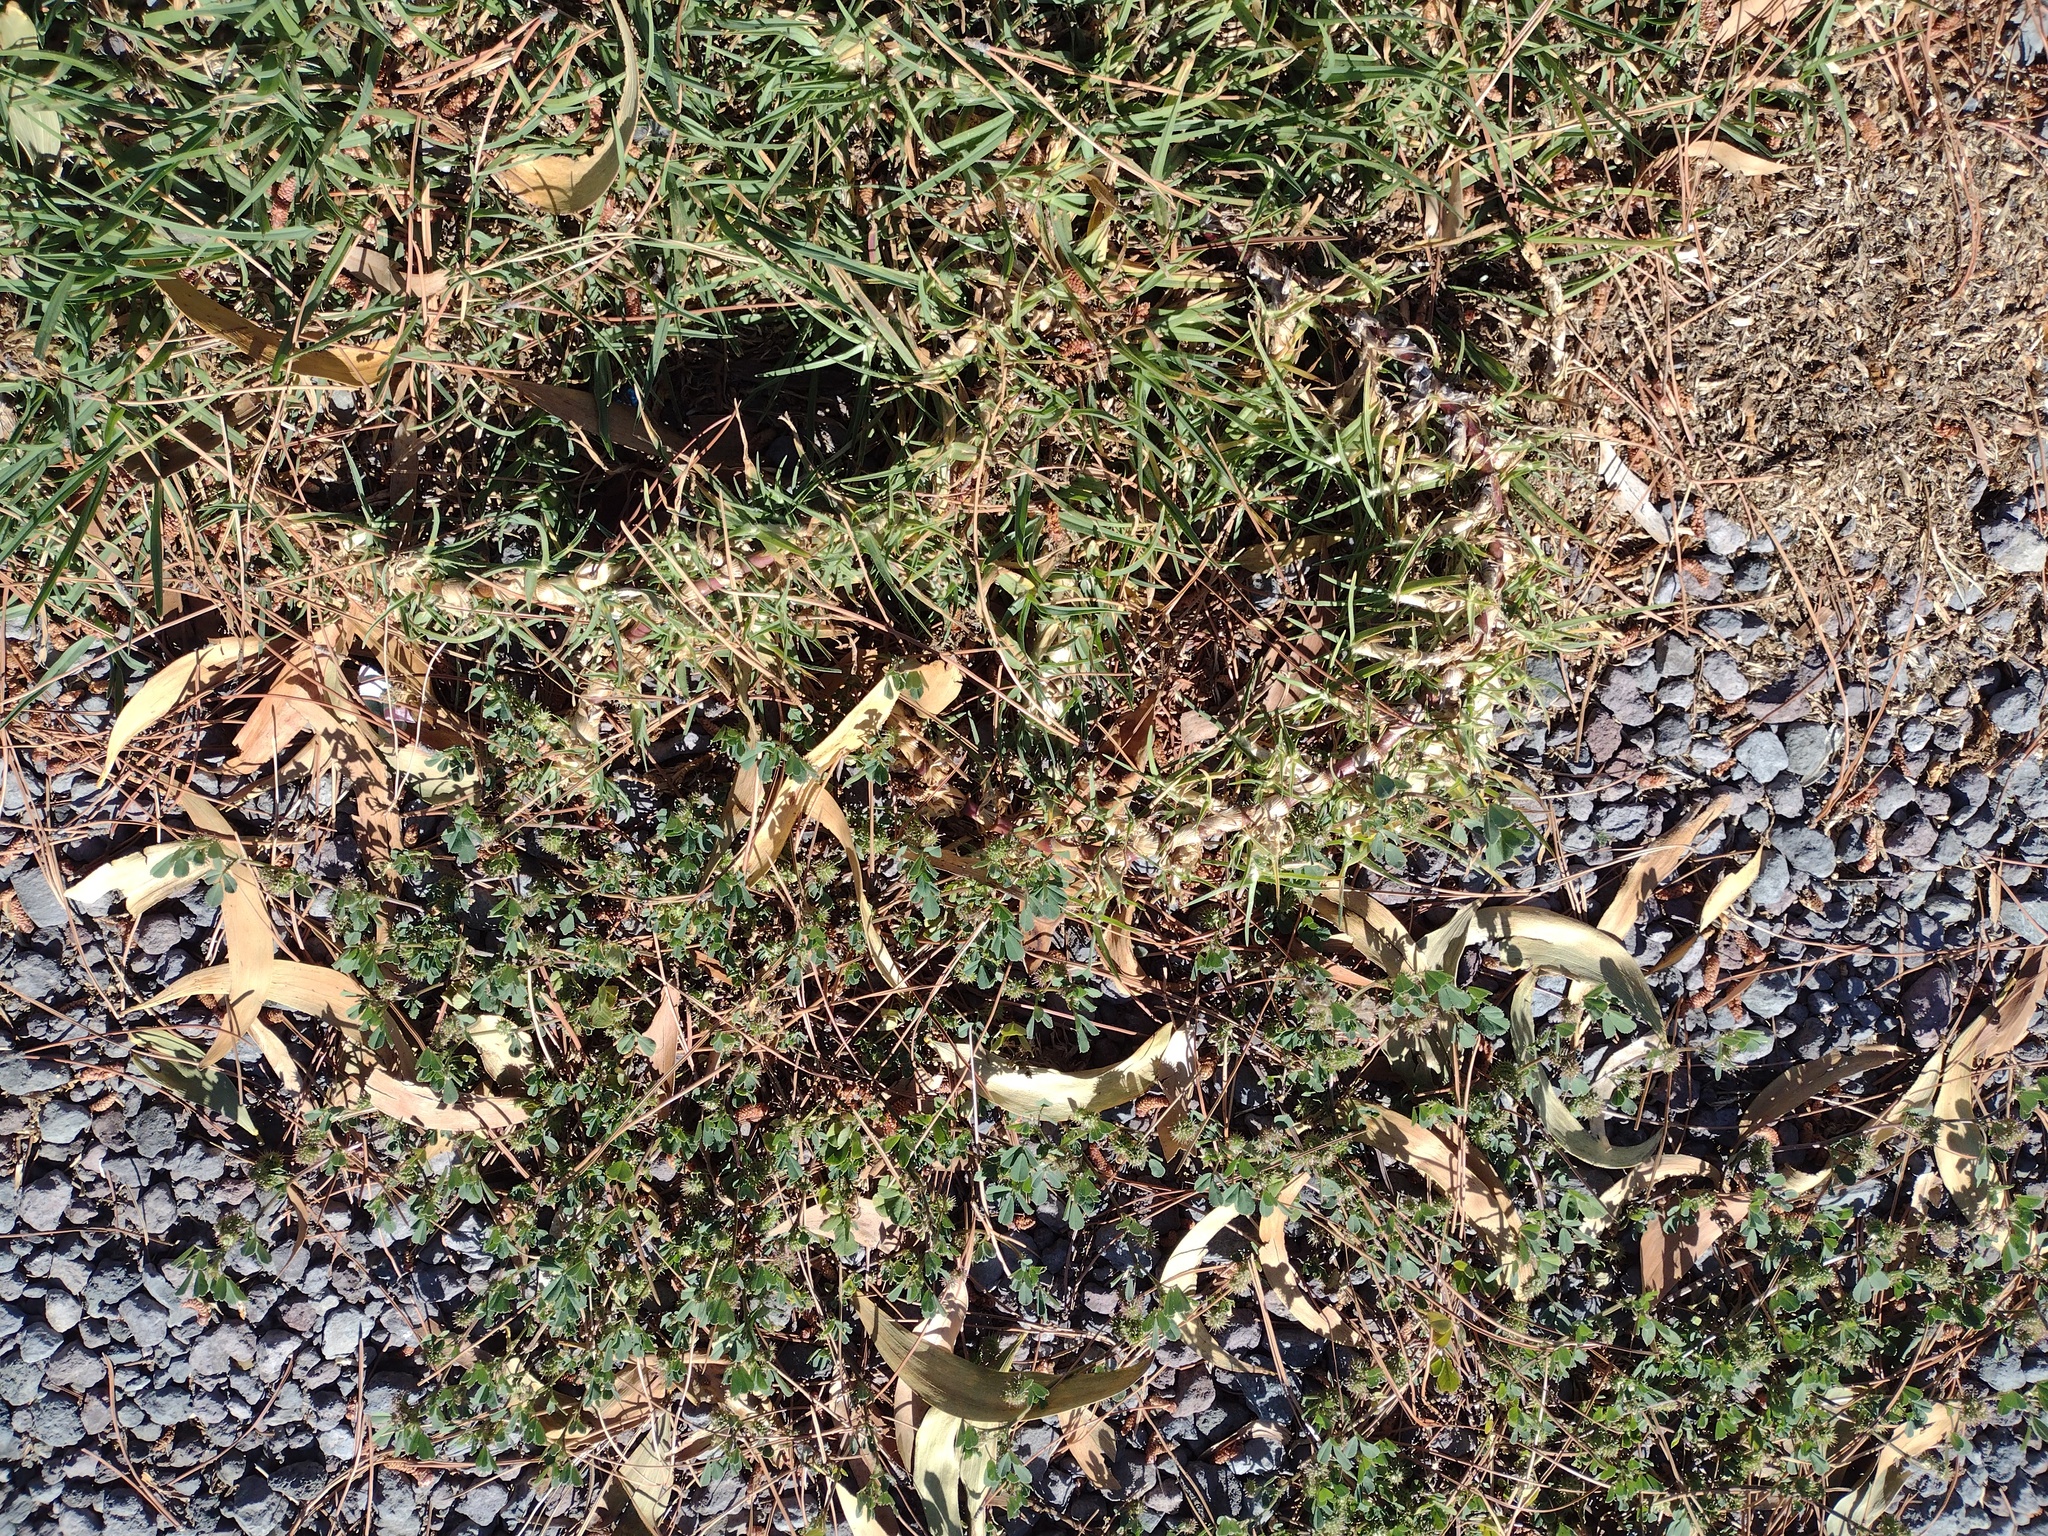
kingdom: Plantae
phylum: Tracheophyta
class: Liliopsida
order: Poales
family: Poaceae
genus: Cenchrus
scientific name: Cenchrus clandestinus
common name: Kikuyugrass
